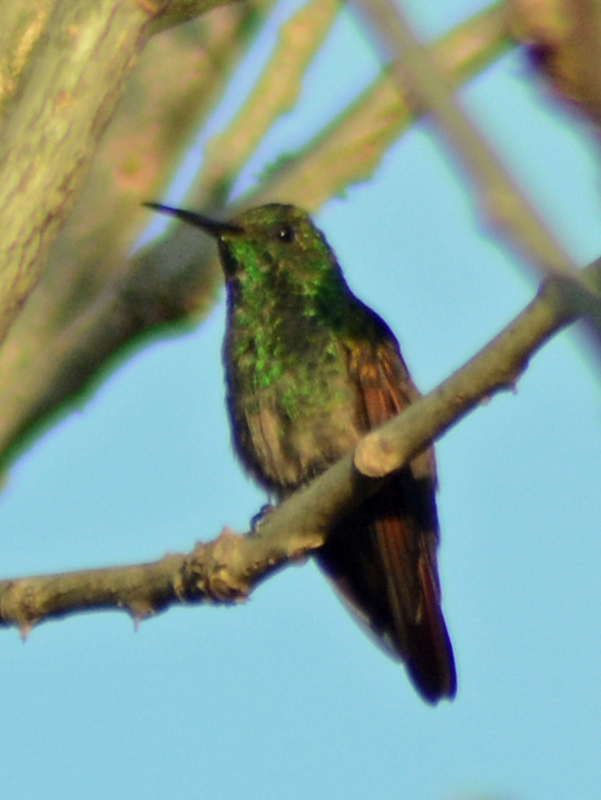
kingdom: Animalia
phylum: Chordata
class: Aves
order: Apodiformes
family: Trochilidae
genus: Saucerottia
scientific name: Saucerottia beryllina
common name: Berylline hummingbird
